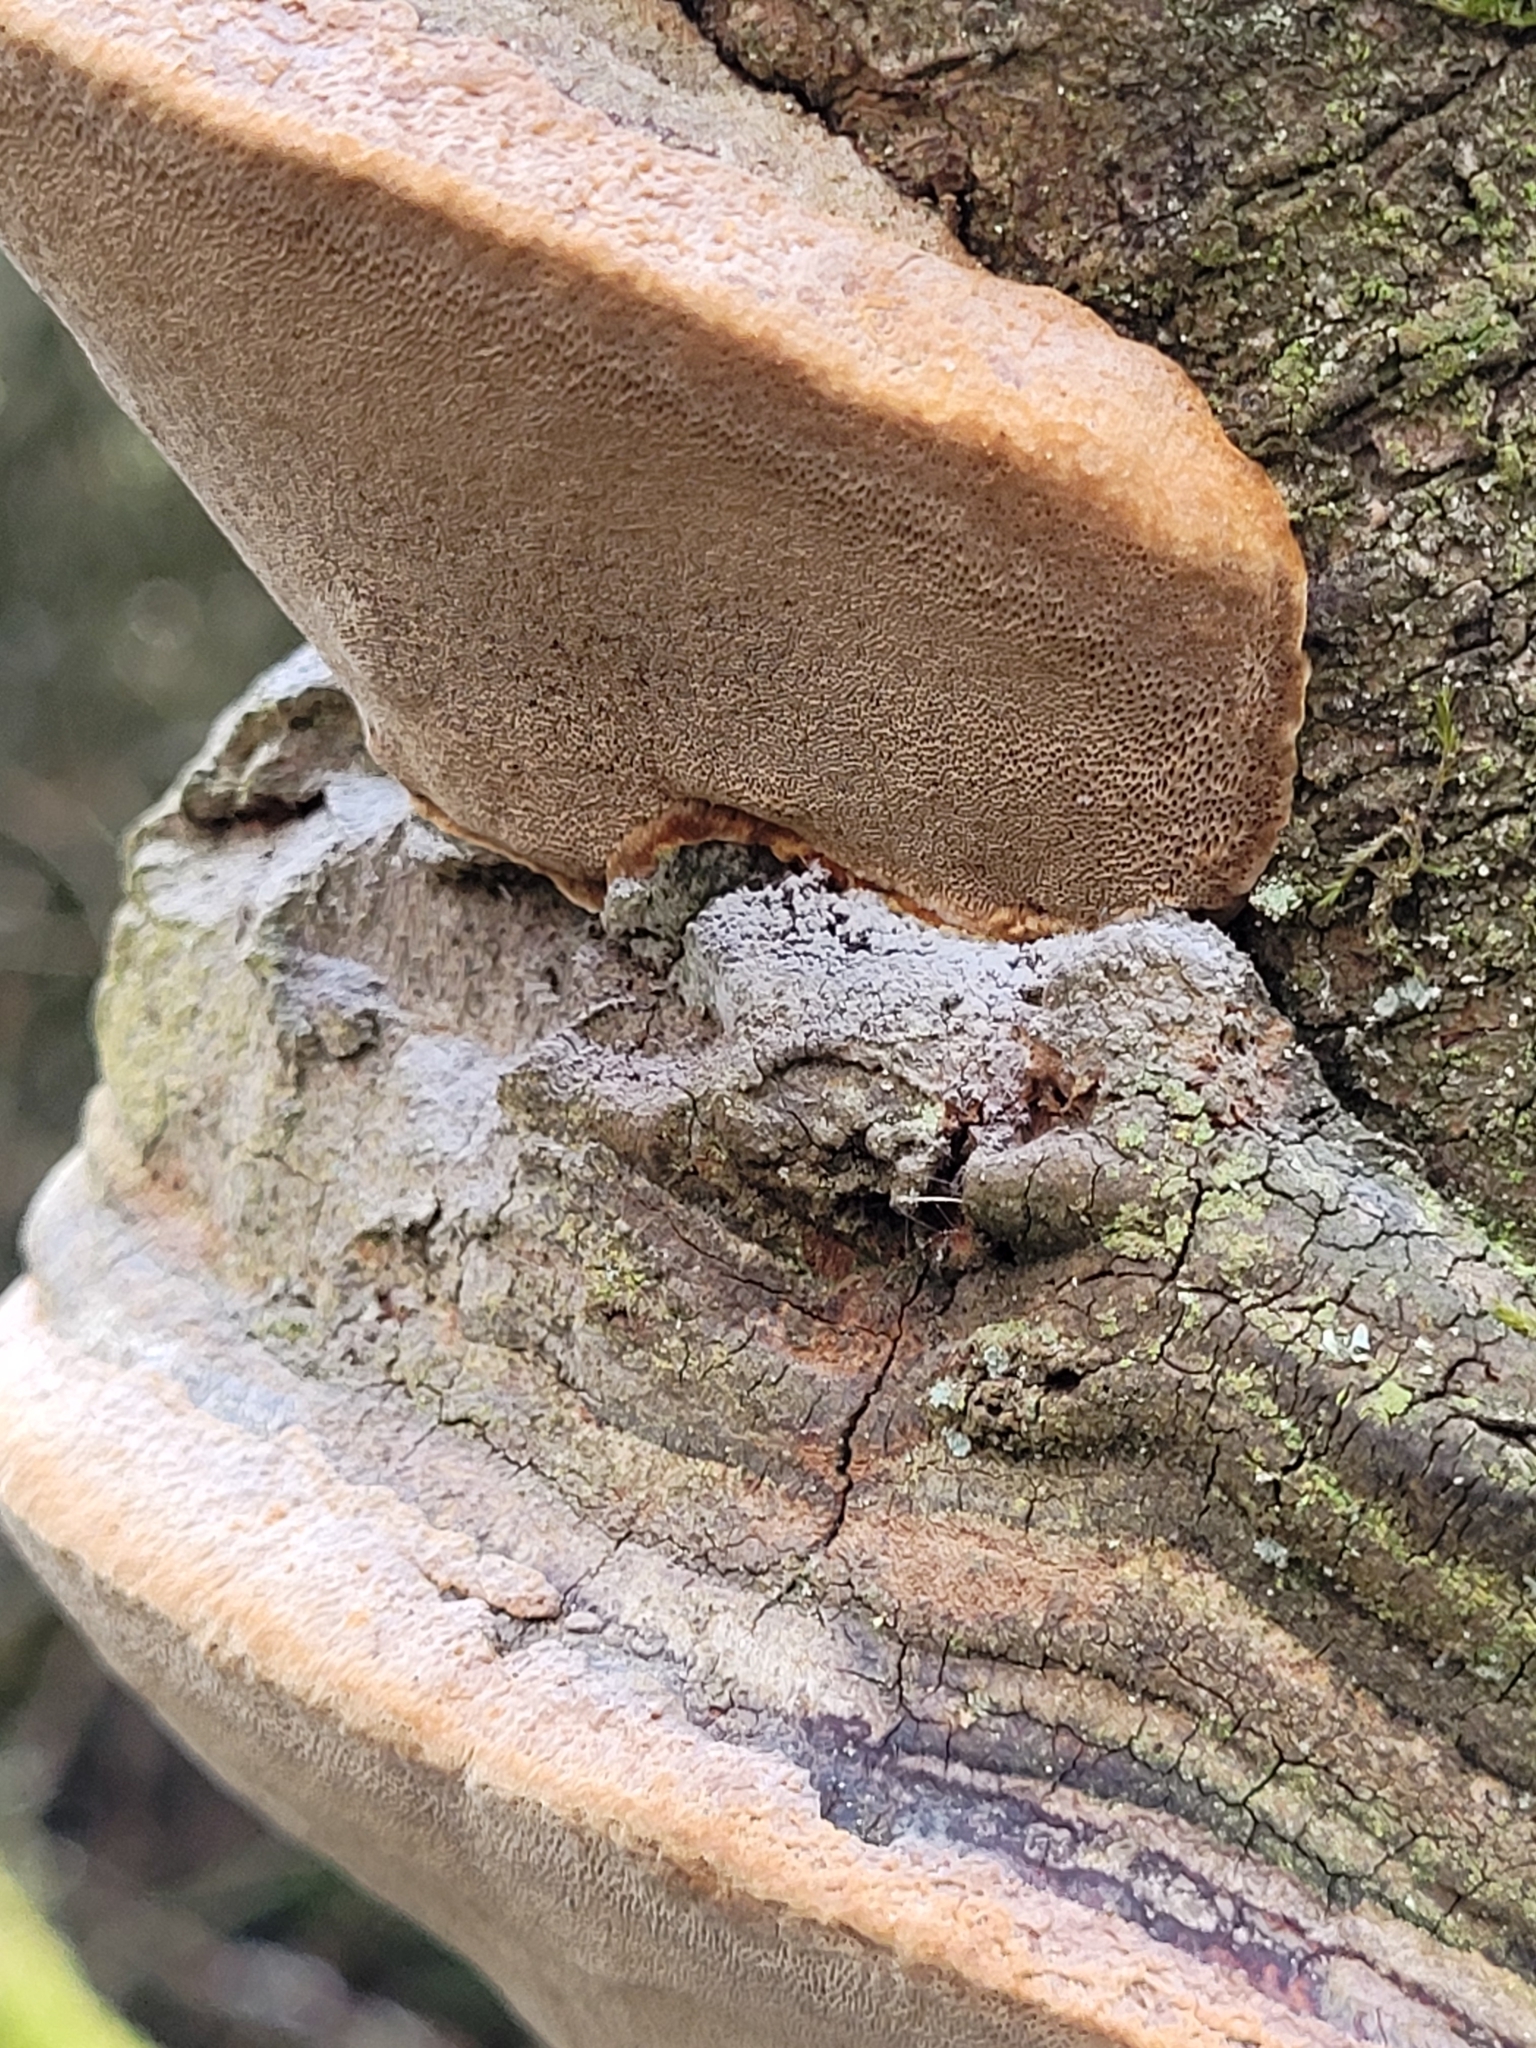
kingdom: Fungi
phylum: Basidiomycota
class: Agaricomycetes
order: Hymenochaetales
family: Hymenochaetaceae
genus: Phellinus
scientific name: Phellinus pomaceus
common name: Cushion bracket
